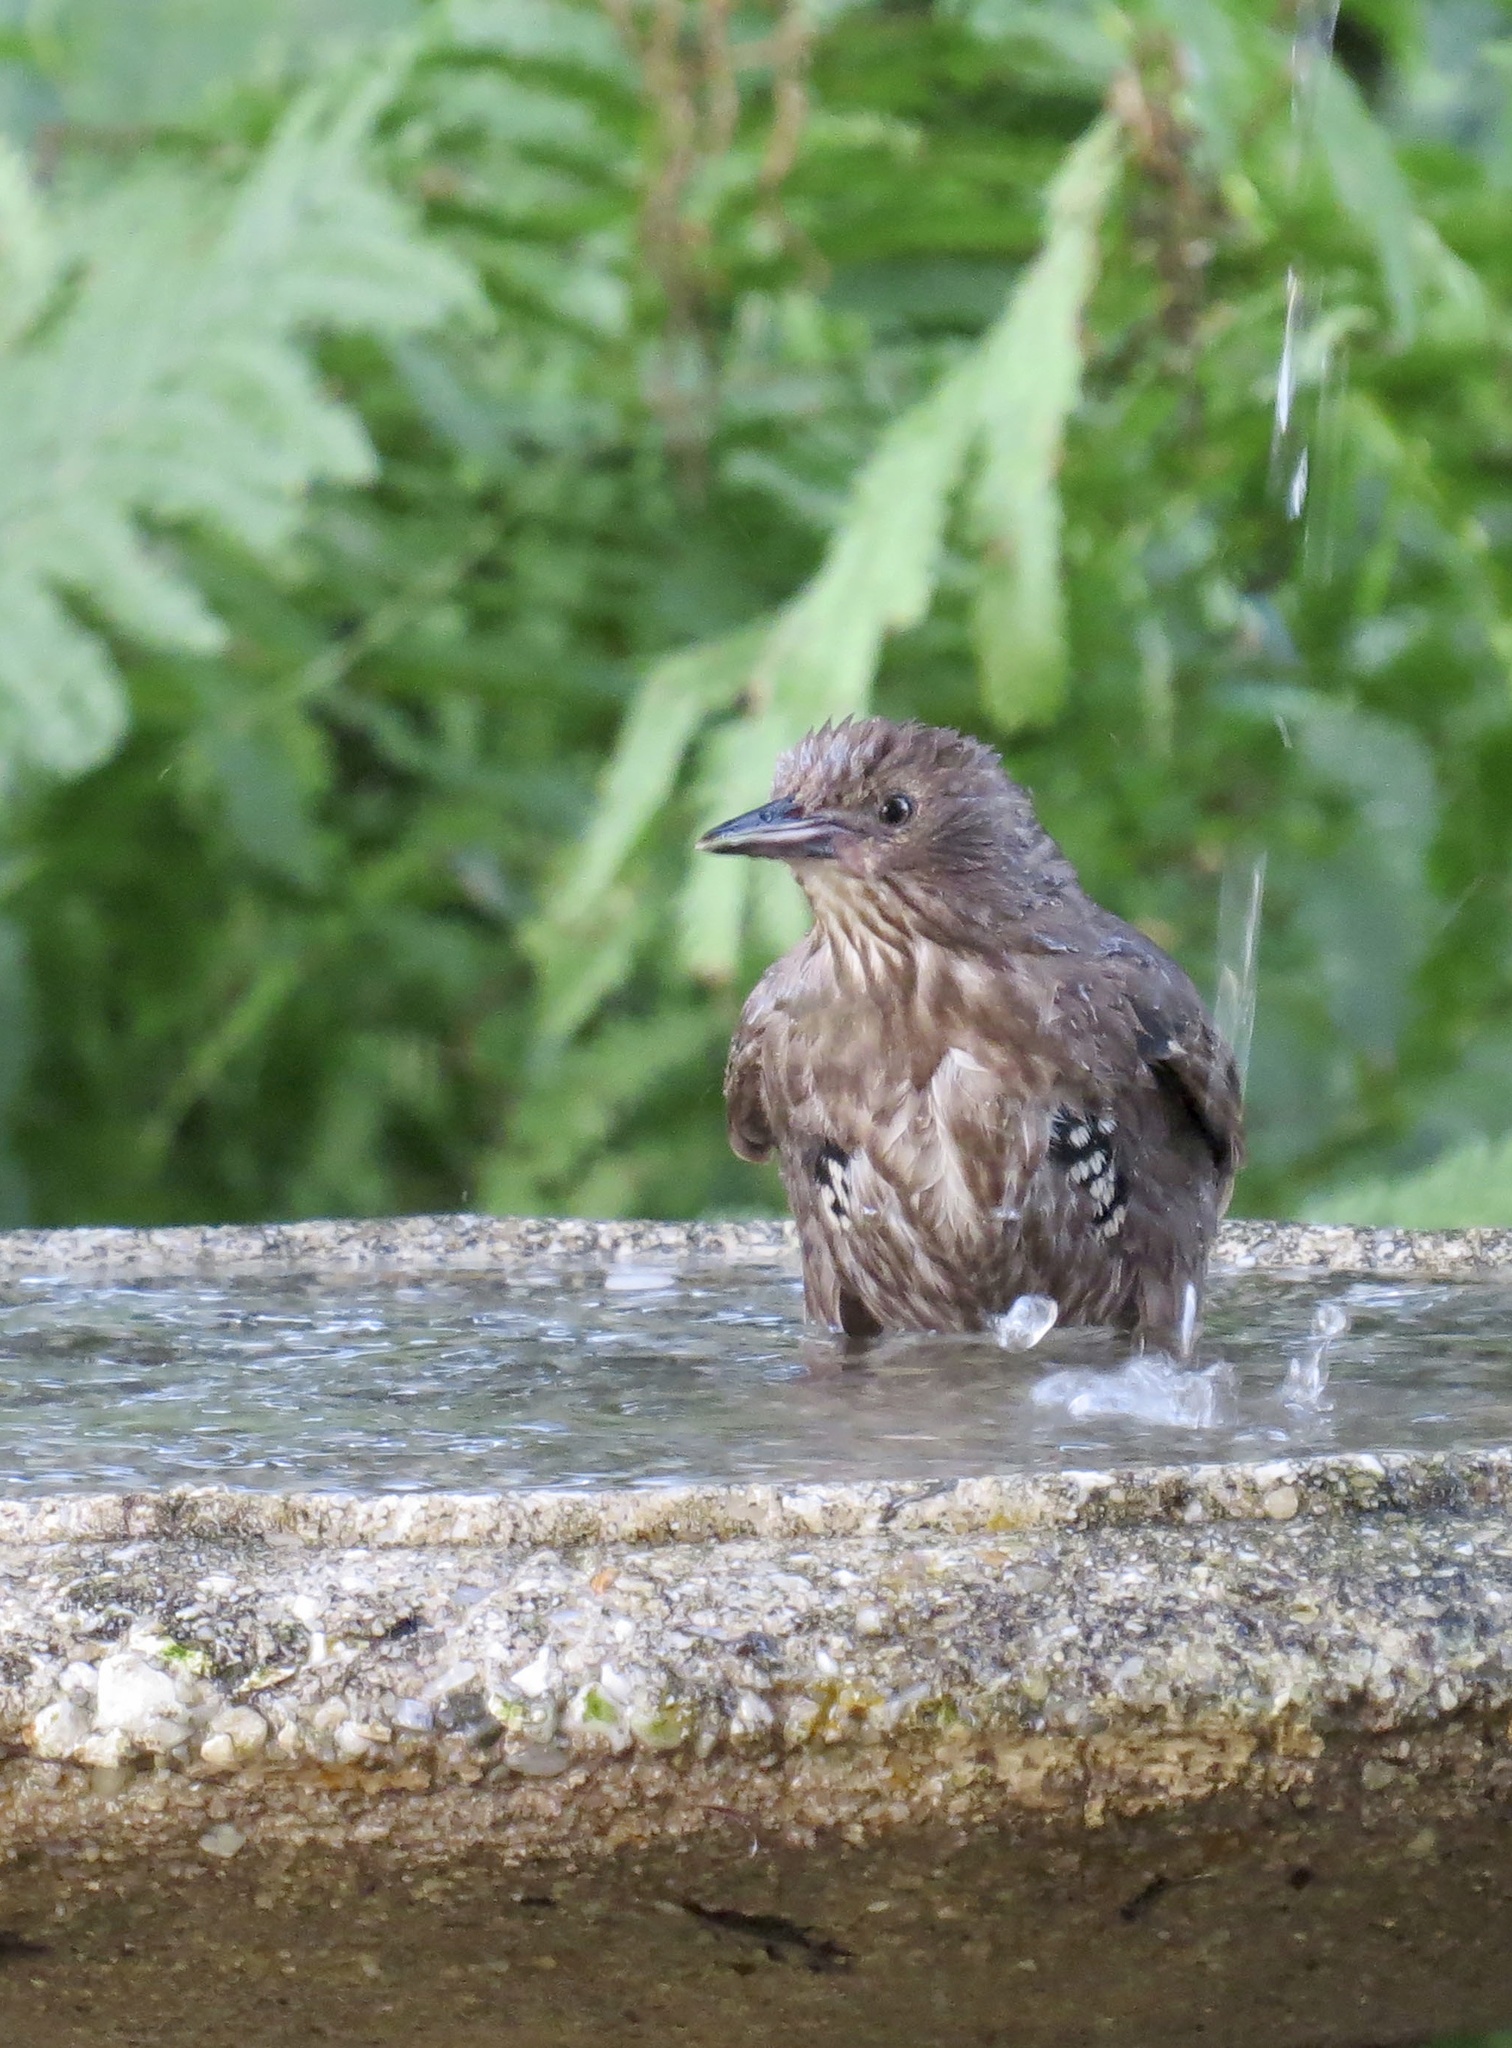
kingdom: Animalia
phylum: Chordata
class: Aves
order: Passeriformes
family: Sturnidae
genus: Sturnus
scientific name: Sturnus vulgaris
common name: Common starling
